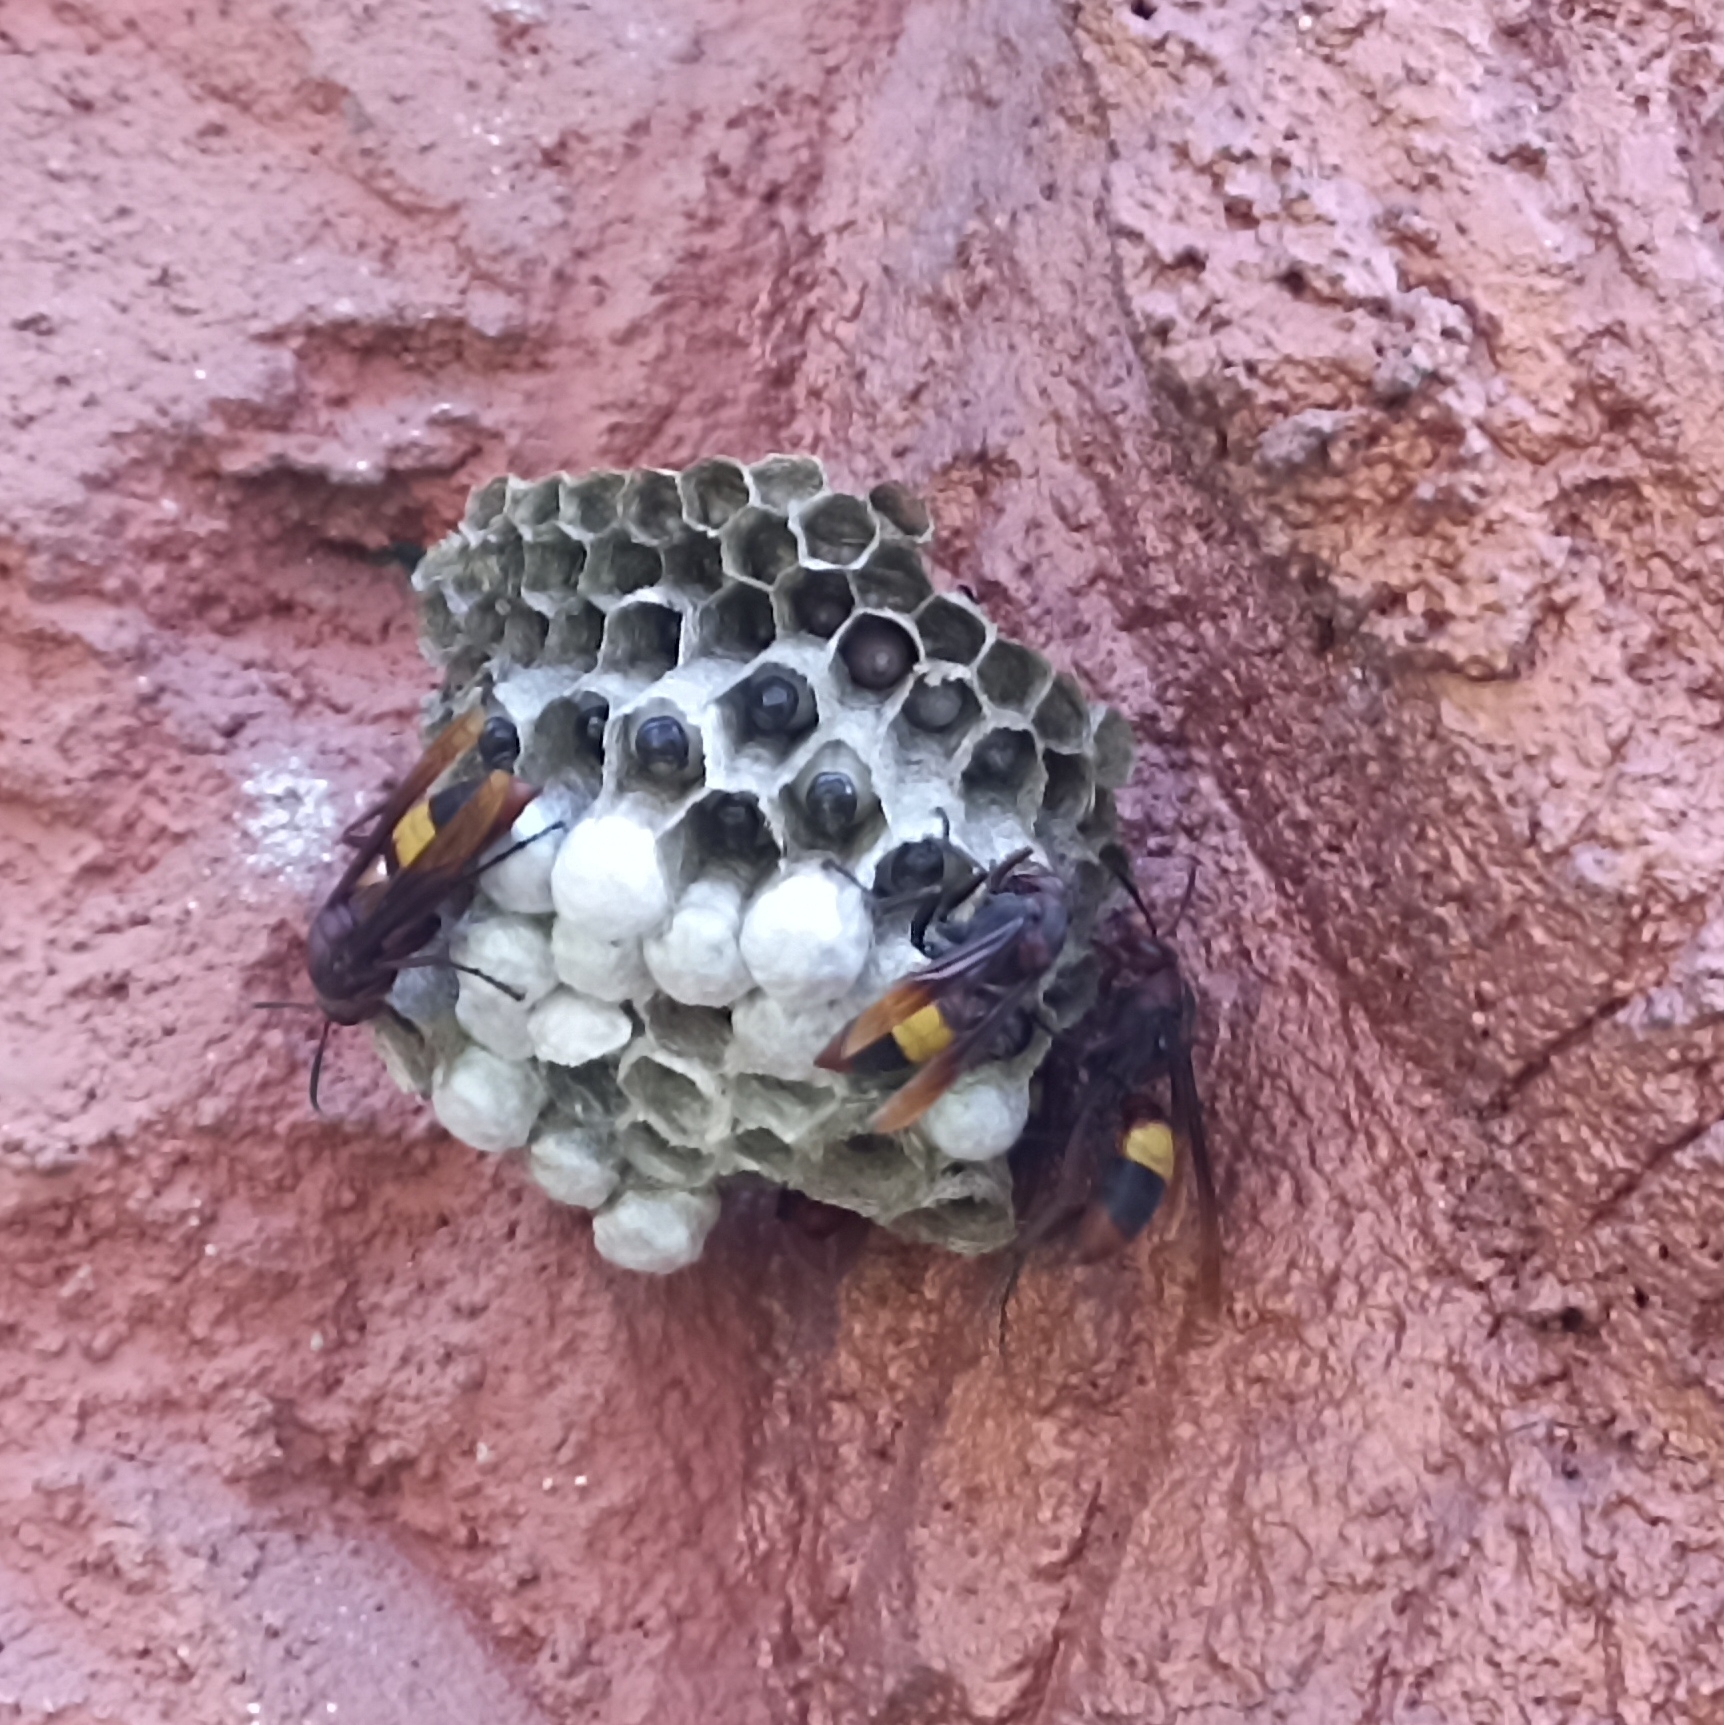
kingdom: Animalia
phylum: Arthropoda
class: Insecta
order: Hymenoptera
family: Eumenidae
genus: Polistes
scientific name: Polistes sagittarius
